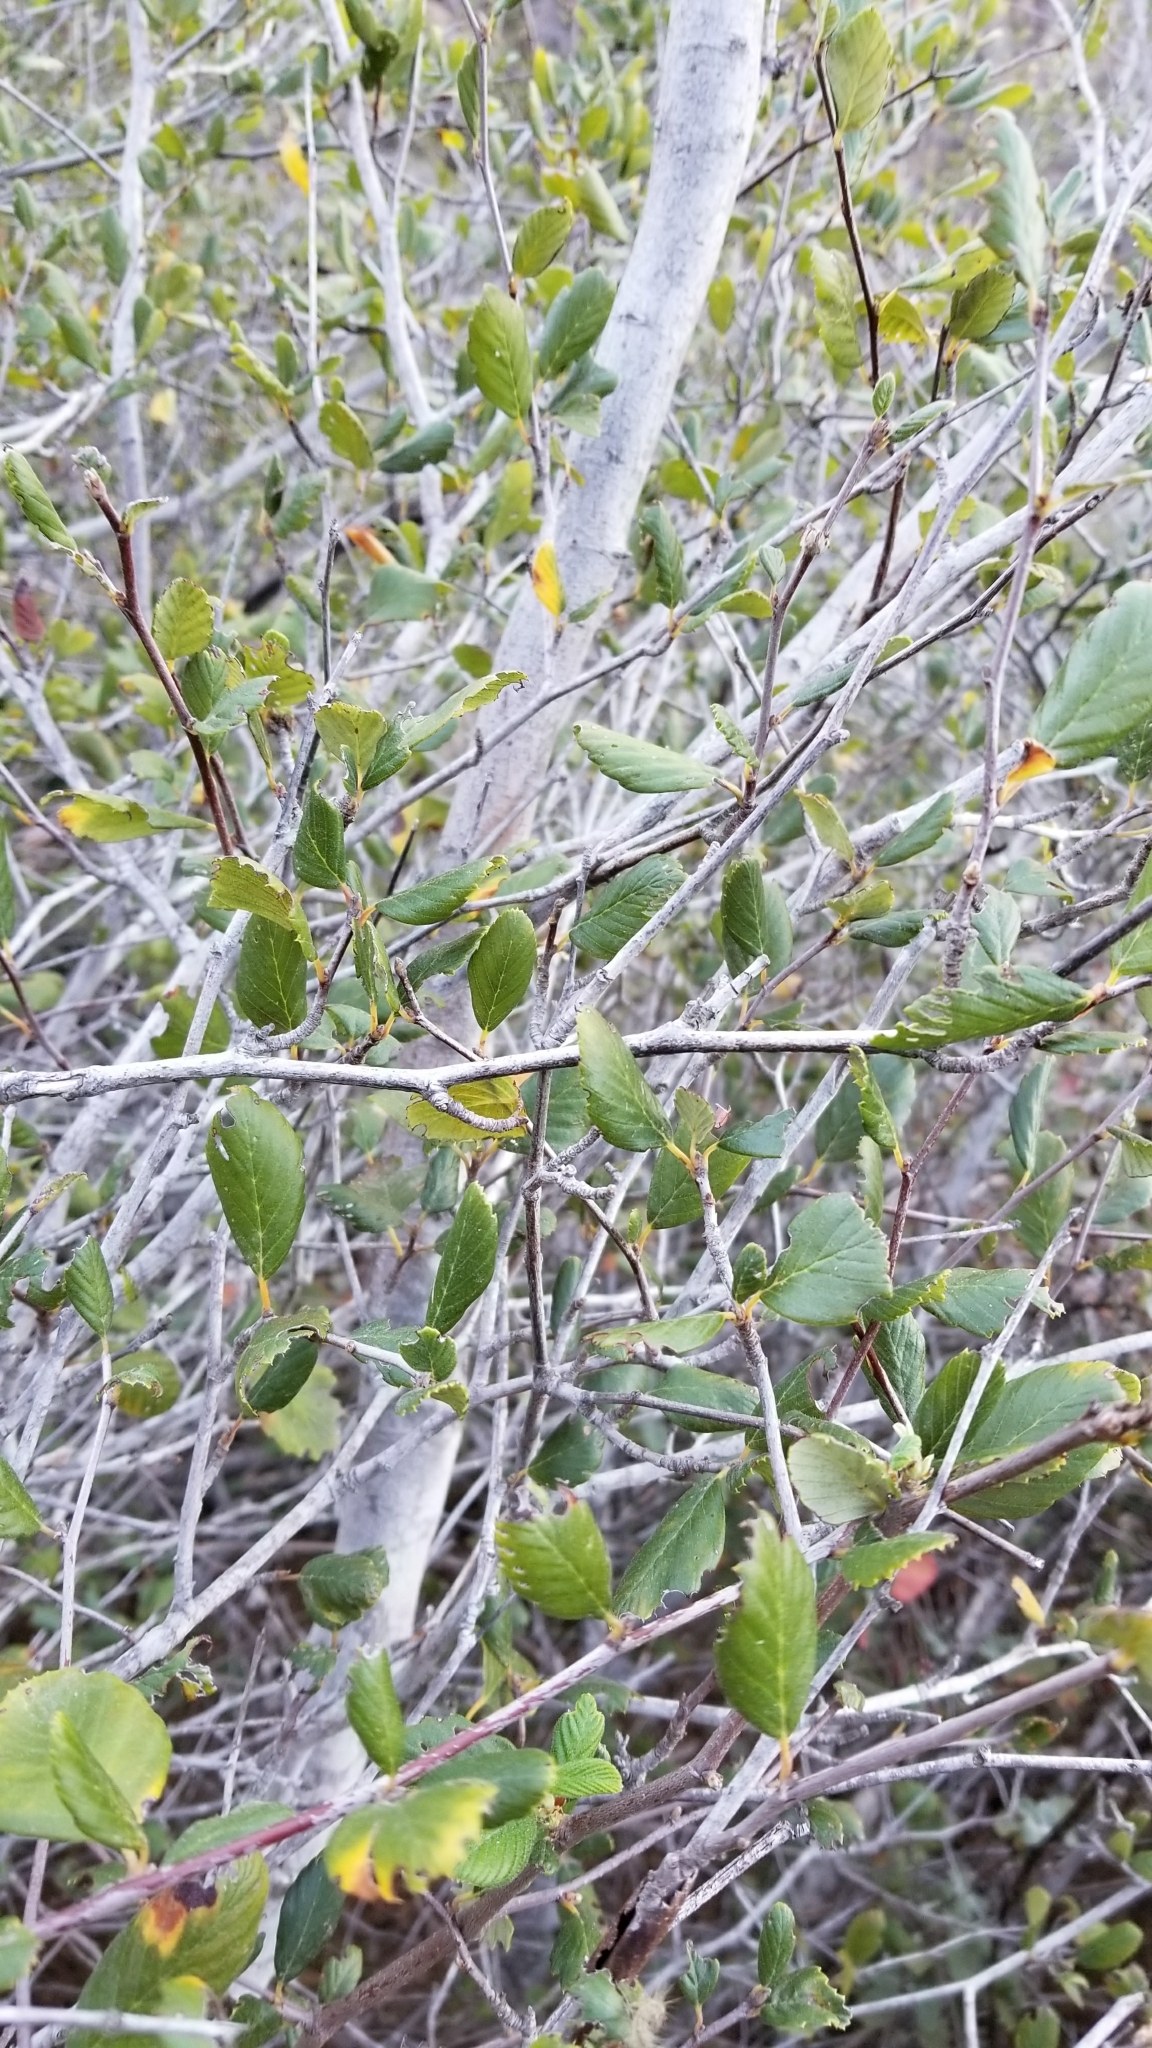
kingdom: Plantae
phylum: Tracheophyta
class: Magnoliopsida
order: Rosales
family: Rosaceae
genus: Cercocarpus
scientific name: Cercocarpus betuloides
